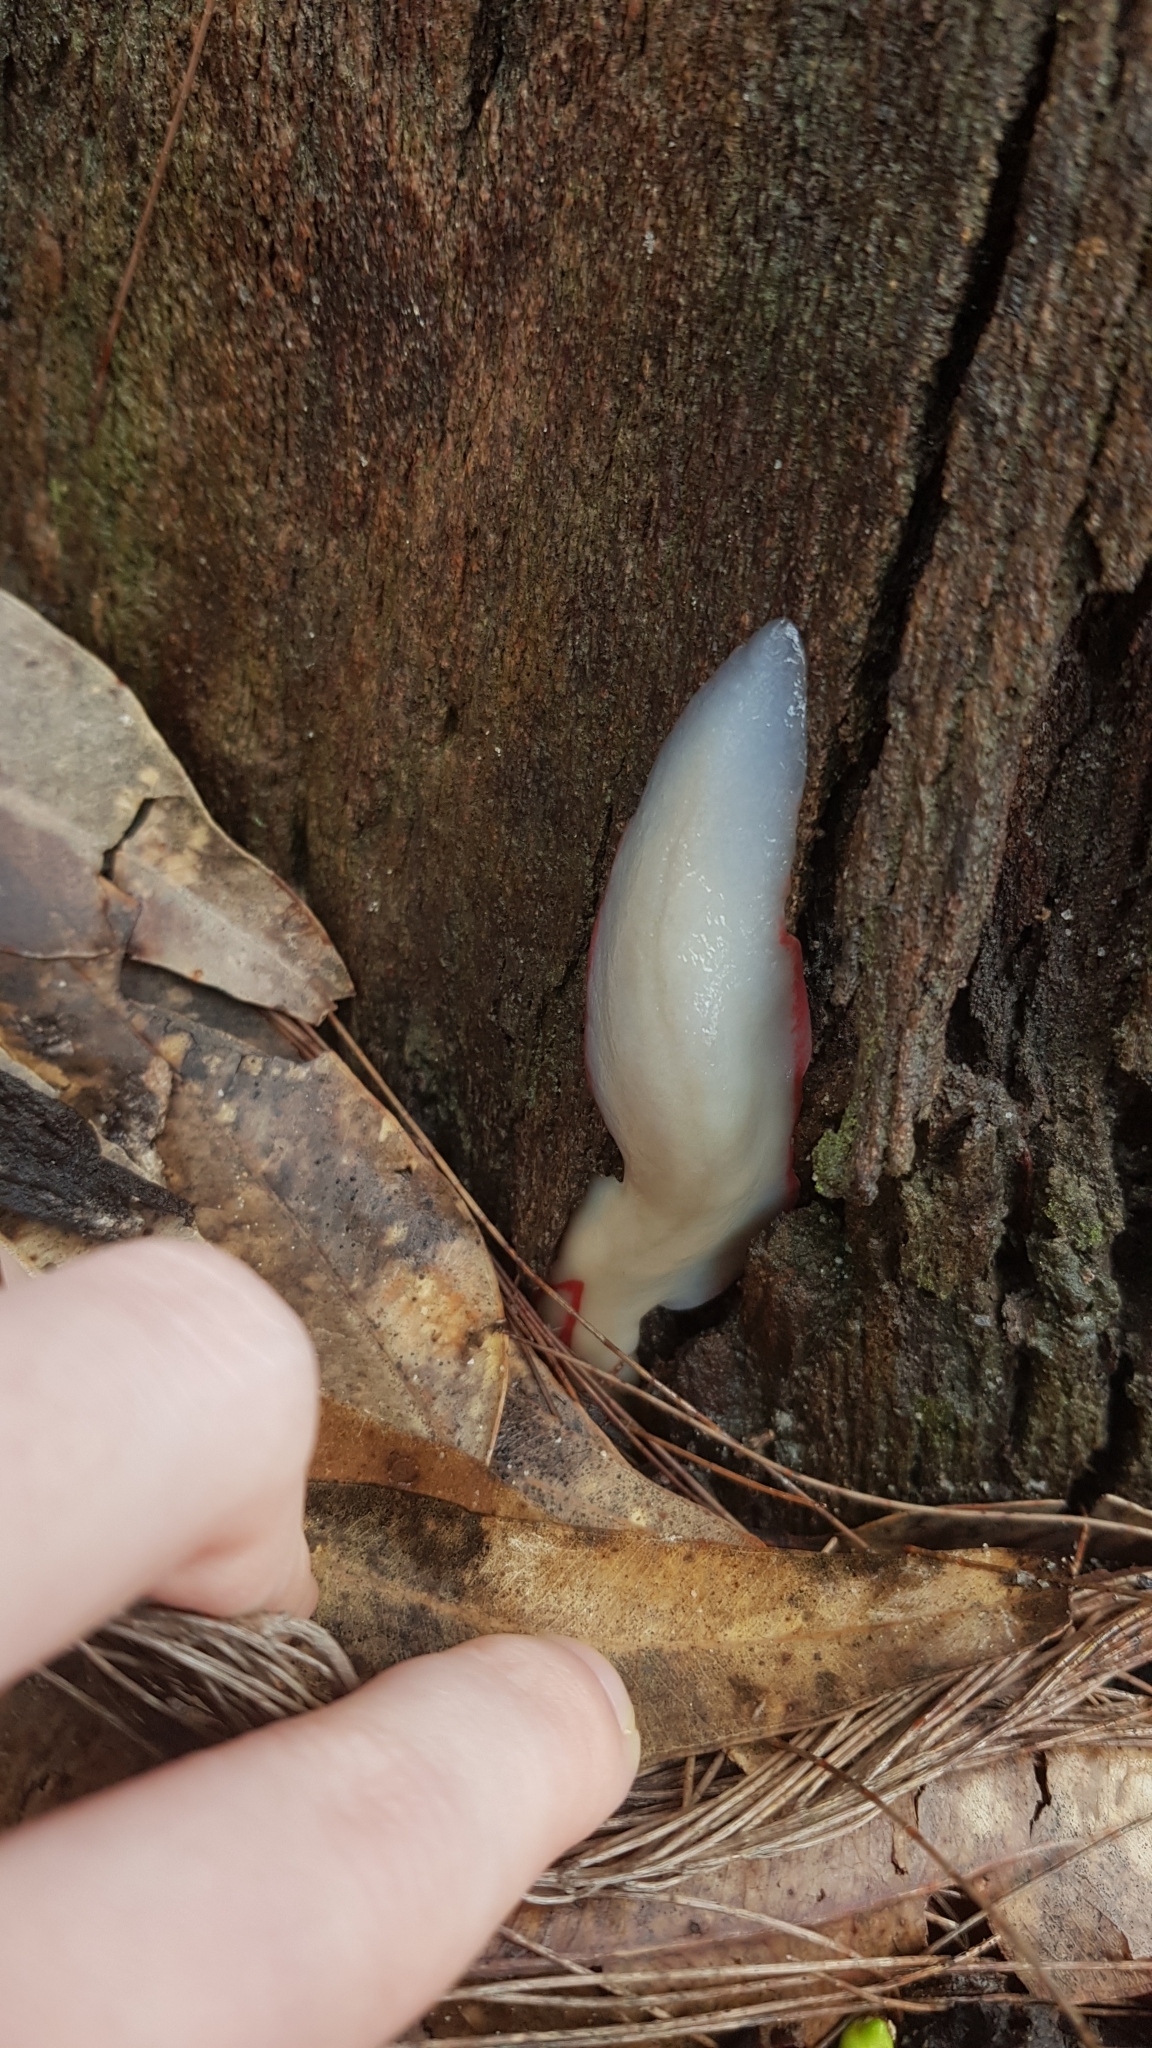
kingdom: Animalia
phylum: Mollusca
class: Gastropoda
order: Stylommatophora
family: Athoracophoridae
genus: Triboniophorus
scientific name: Triboniophorus graeffei
